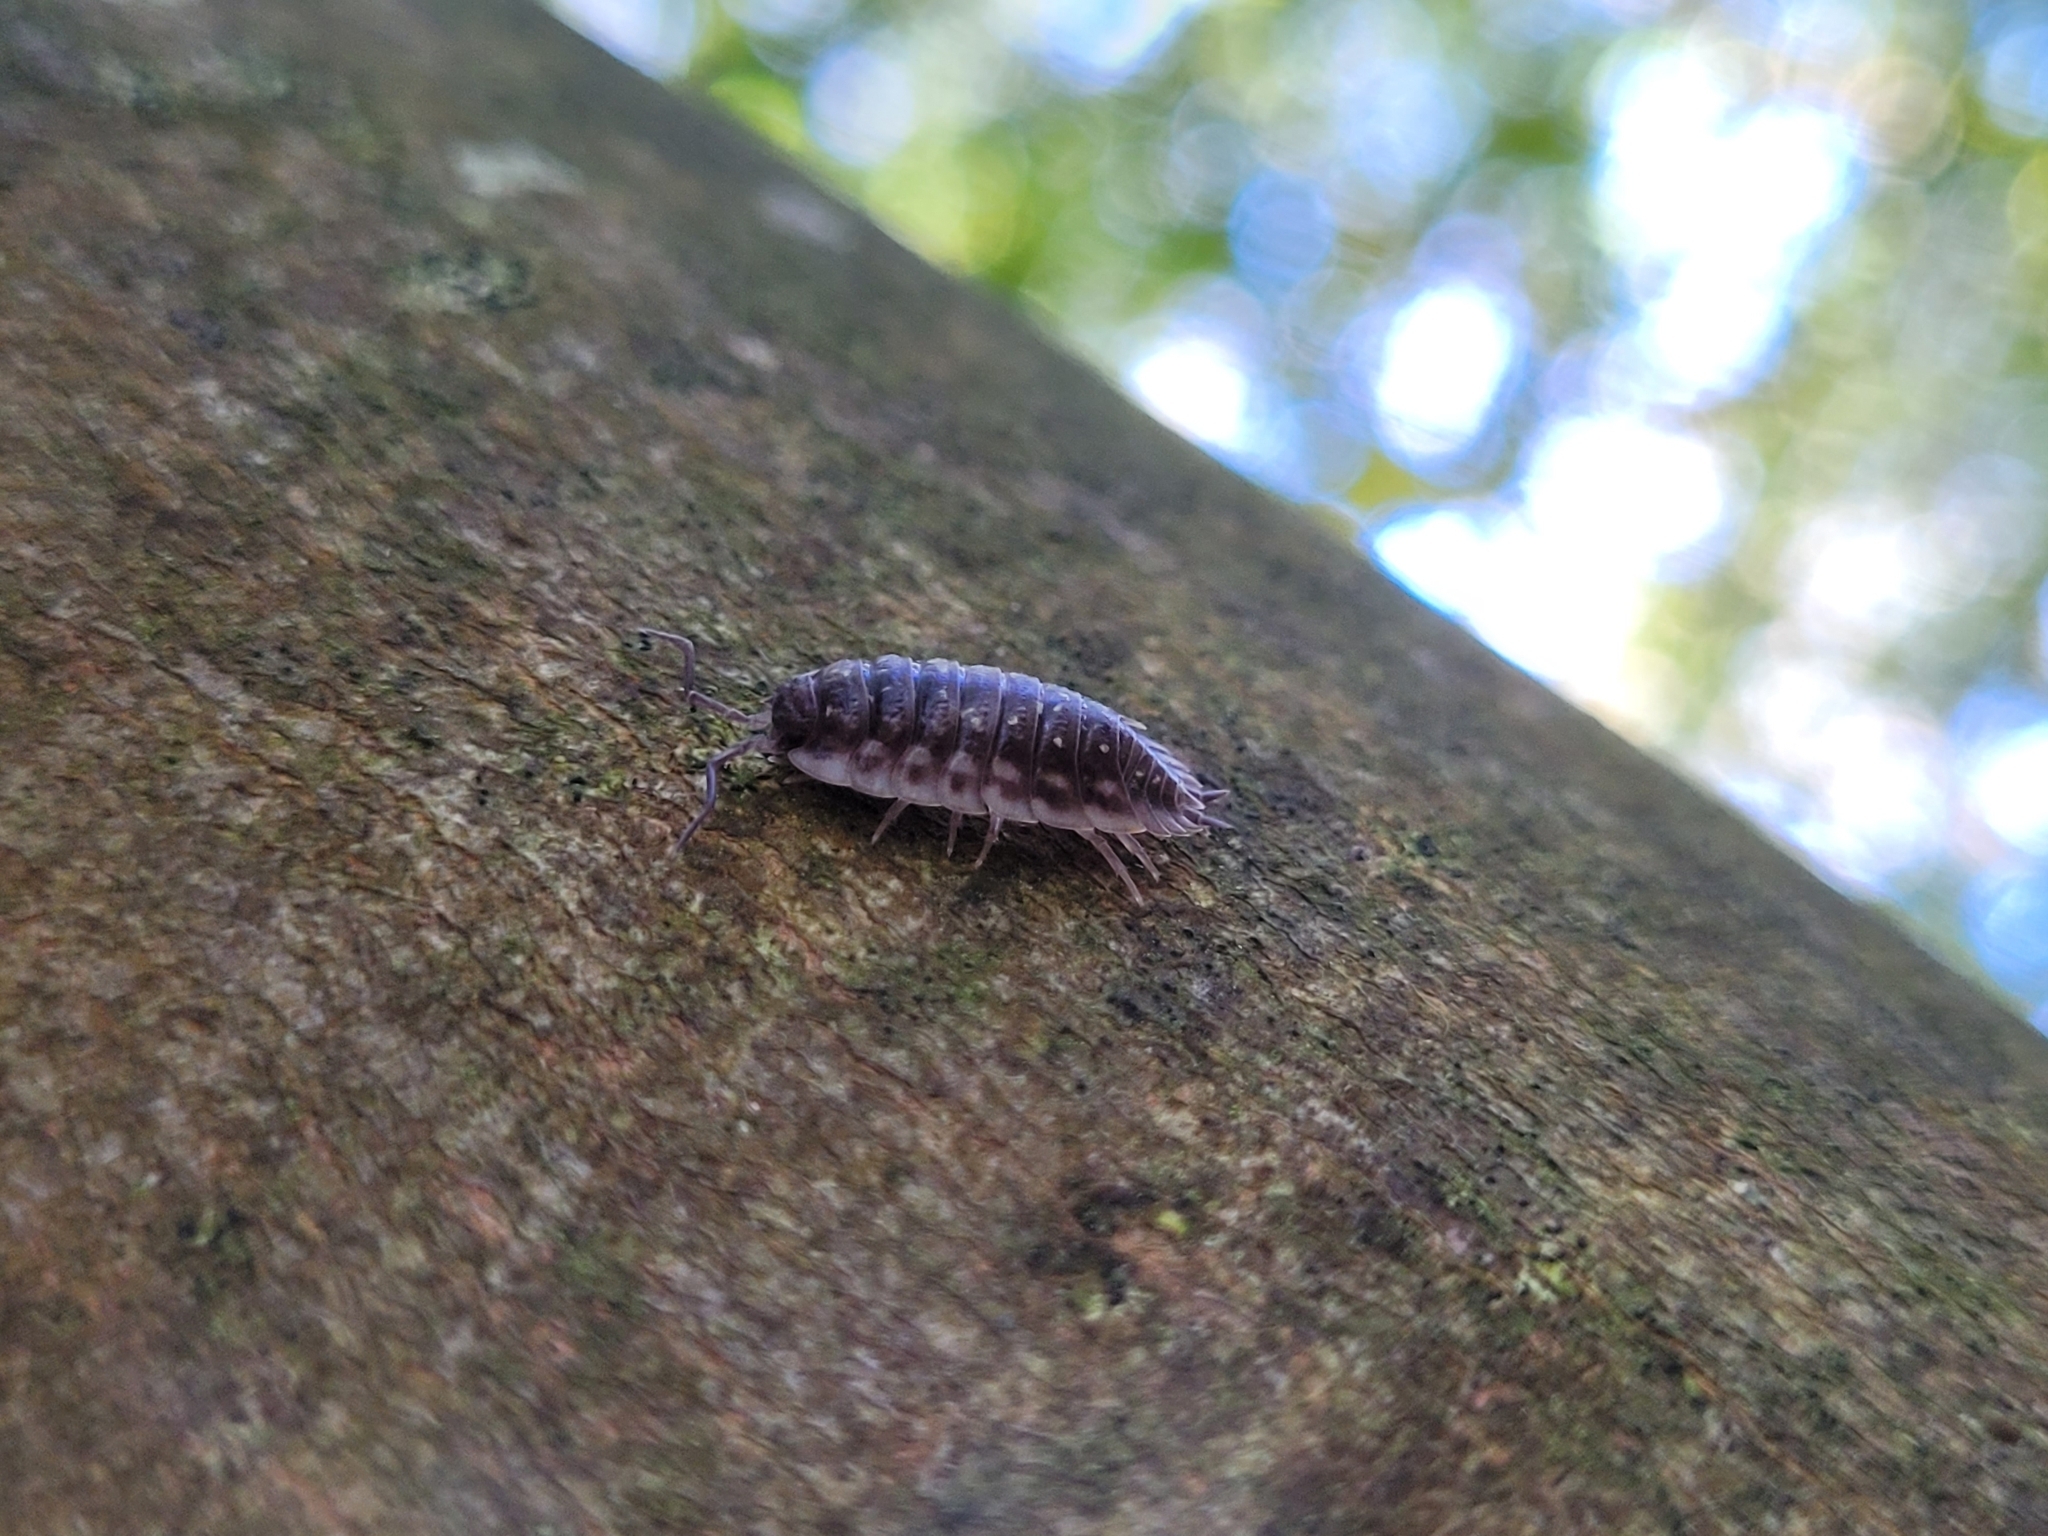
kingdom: Animalia
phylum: Arthropoda
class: Malacostraca
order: Isopoda
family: Oniscidae
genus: Oniscus
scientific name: Oniscus asellus
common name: Common shiny woodlouse
